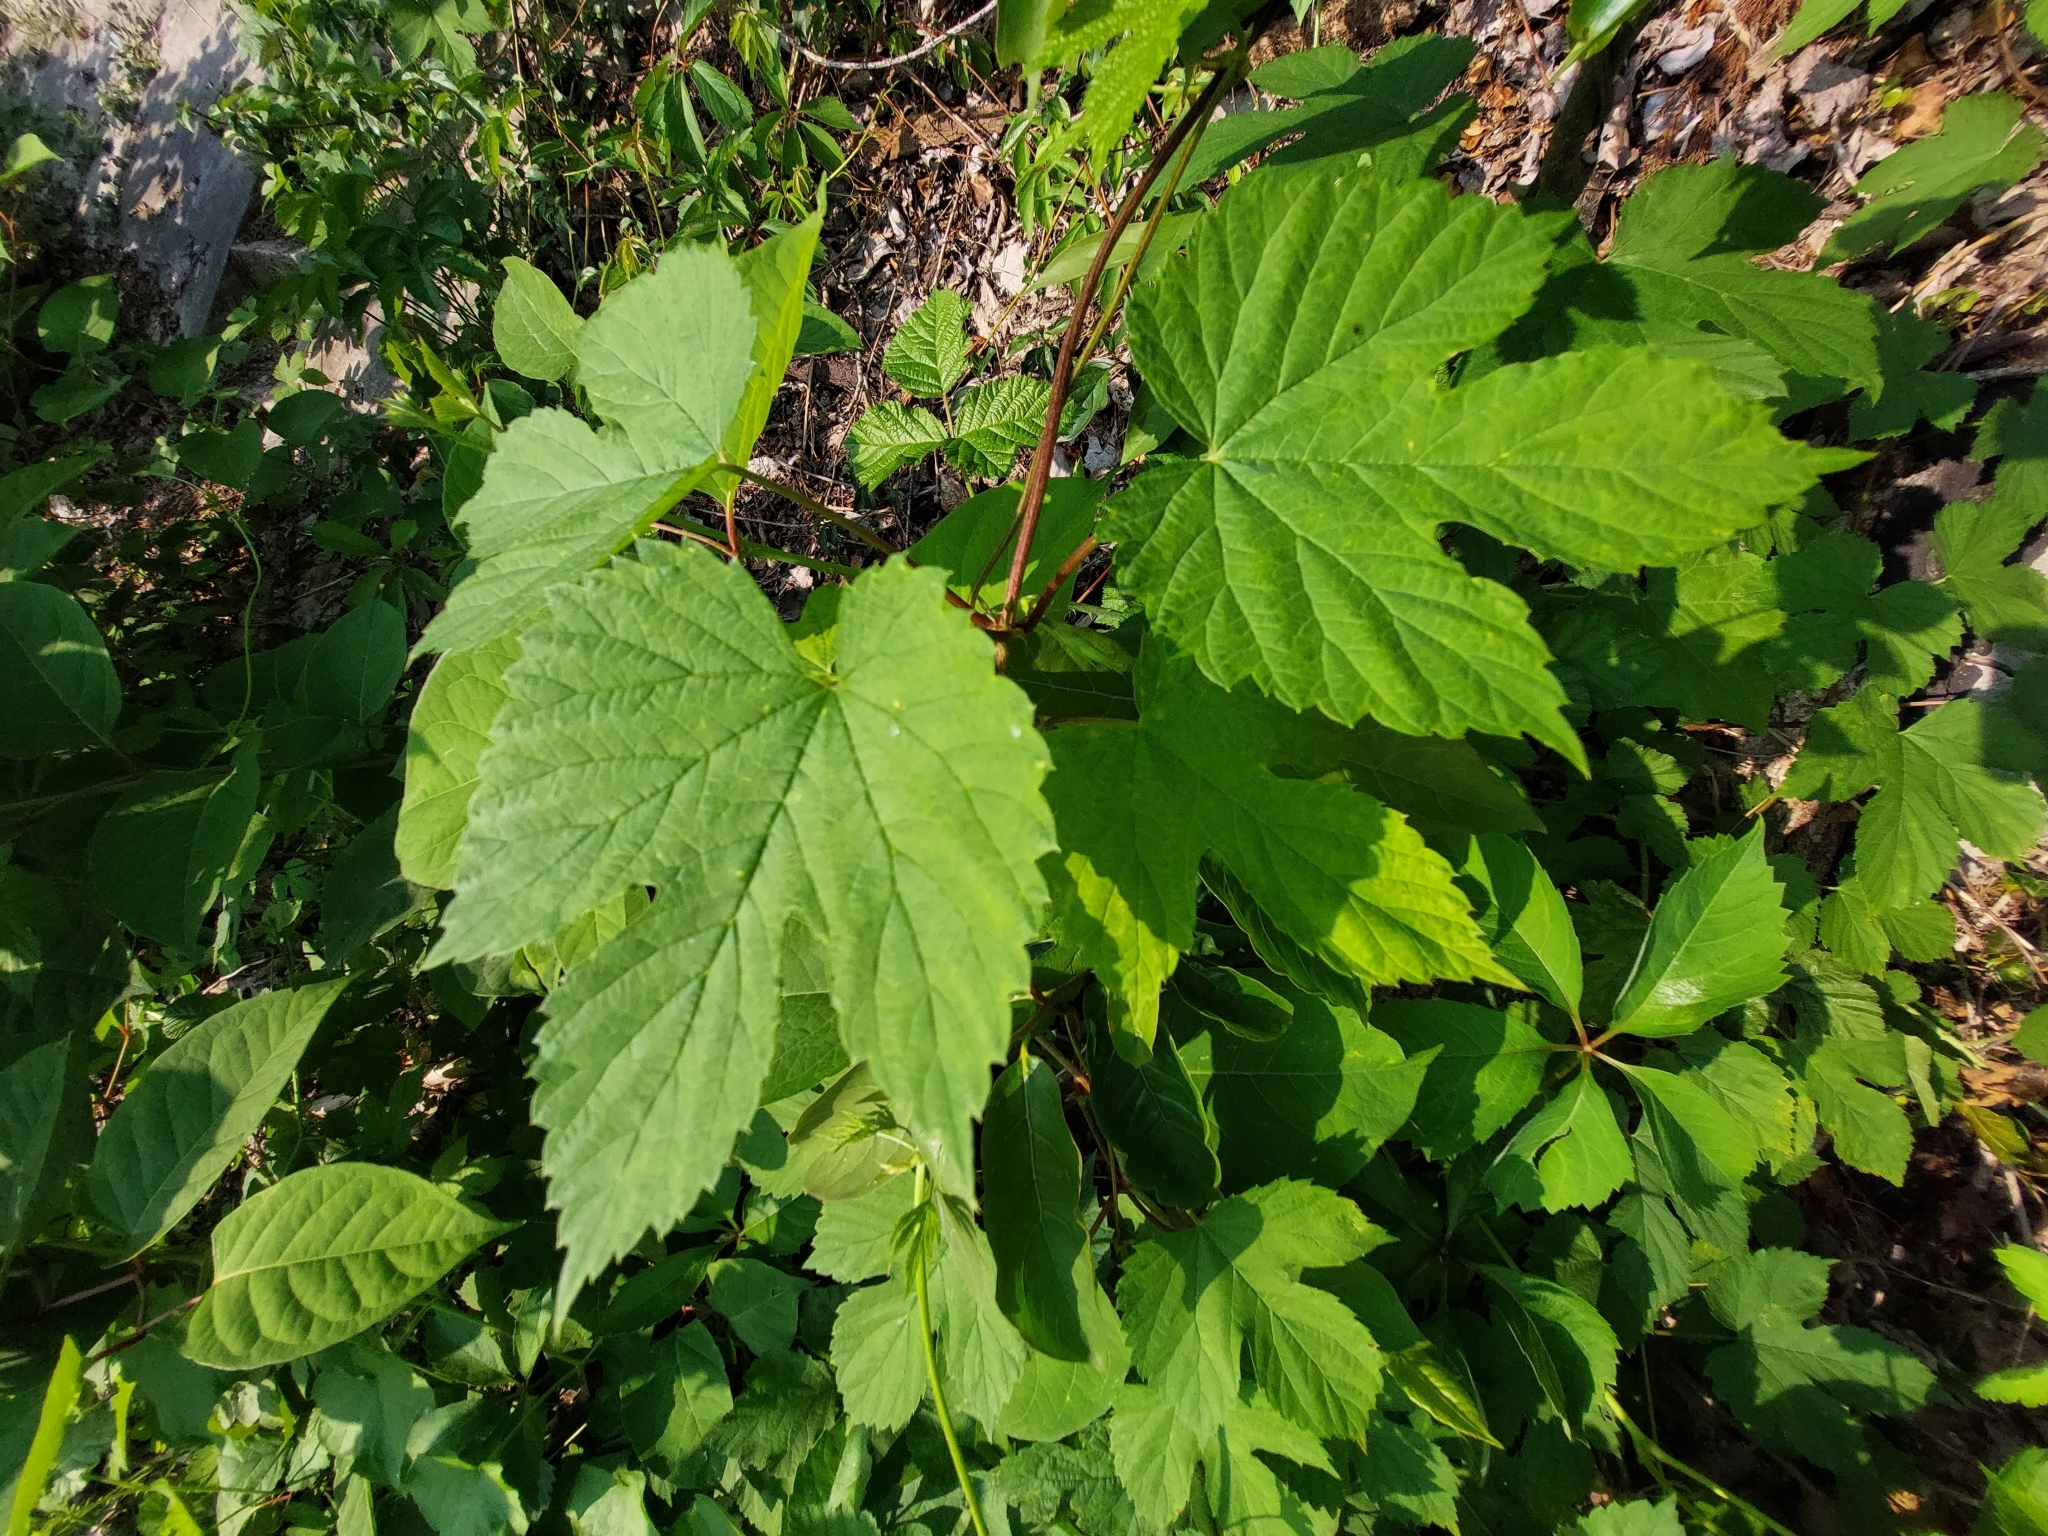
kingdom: Plantae
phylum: Tracheophyta
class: Magnoliopsida
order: Rosales
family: Cannabaceae
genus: Humulus
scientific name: Humulus scandens
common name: Japanese hop
